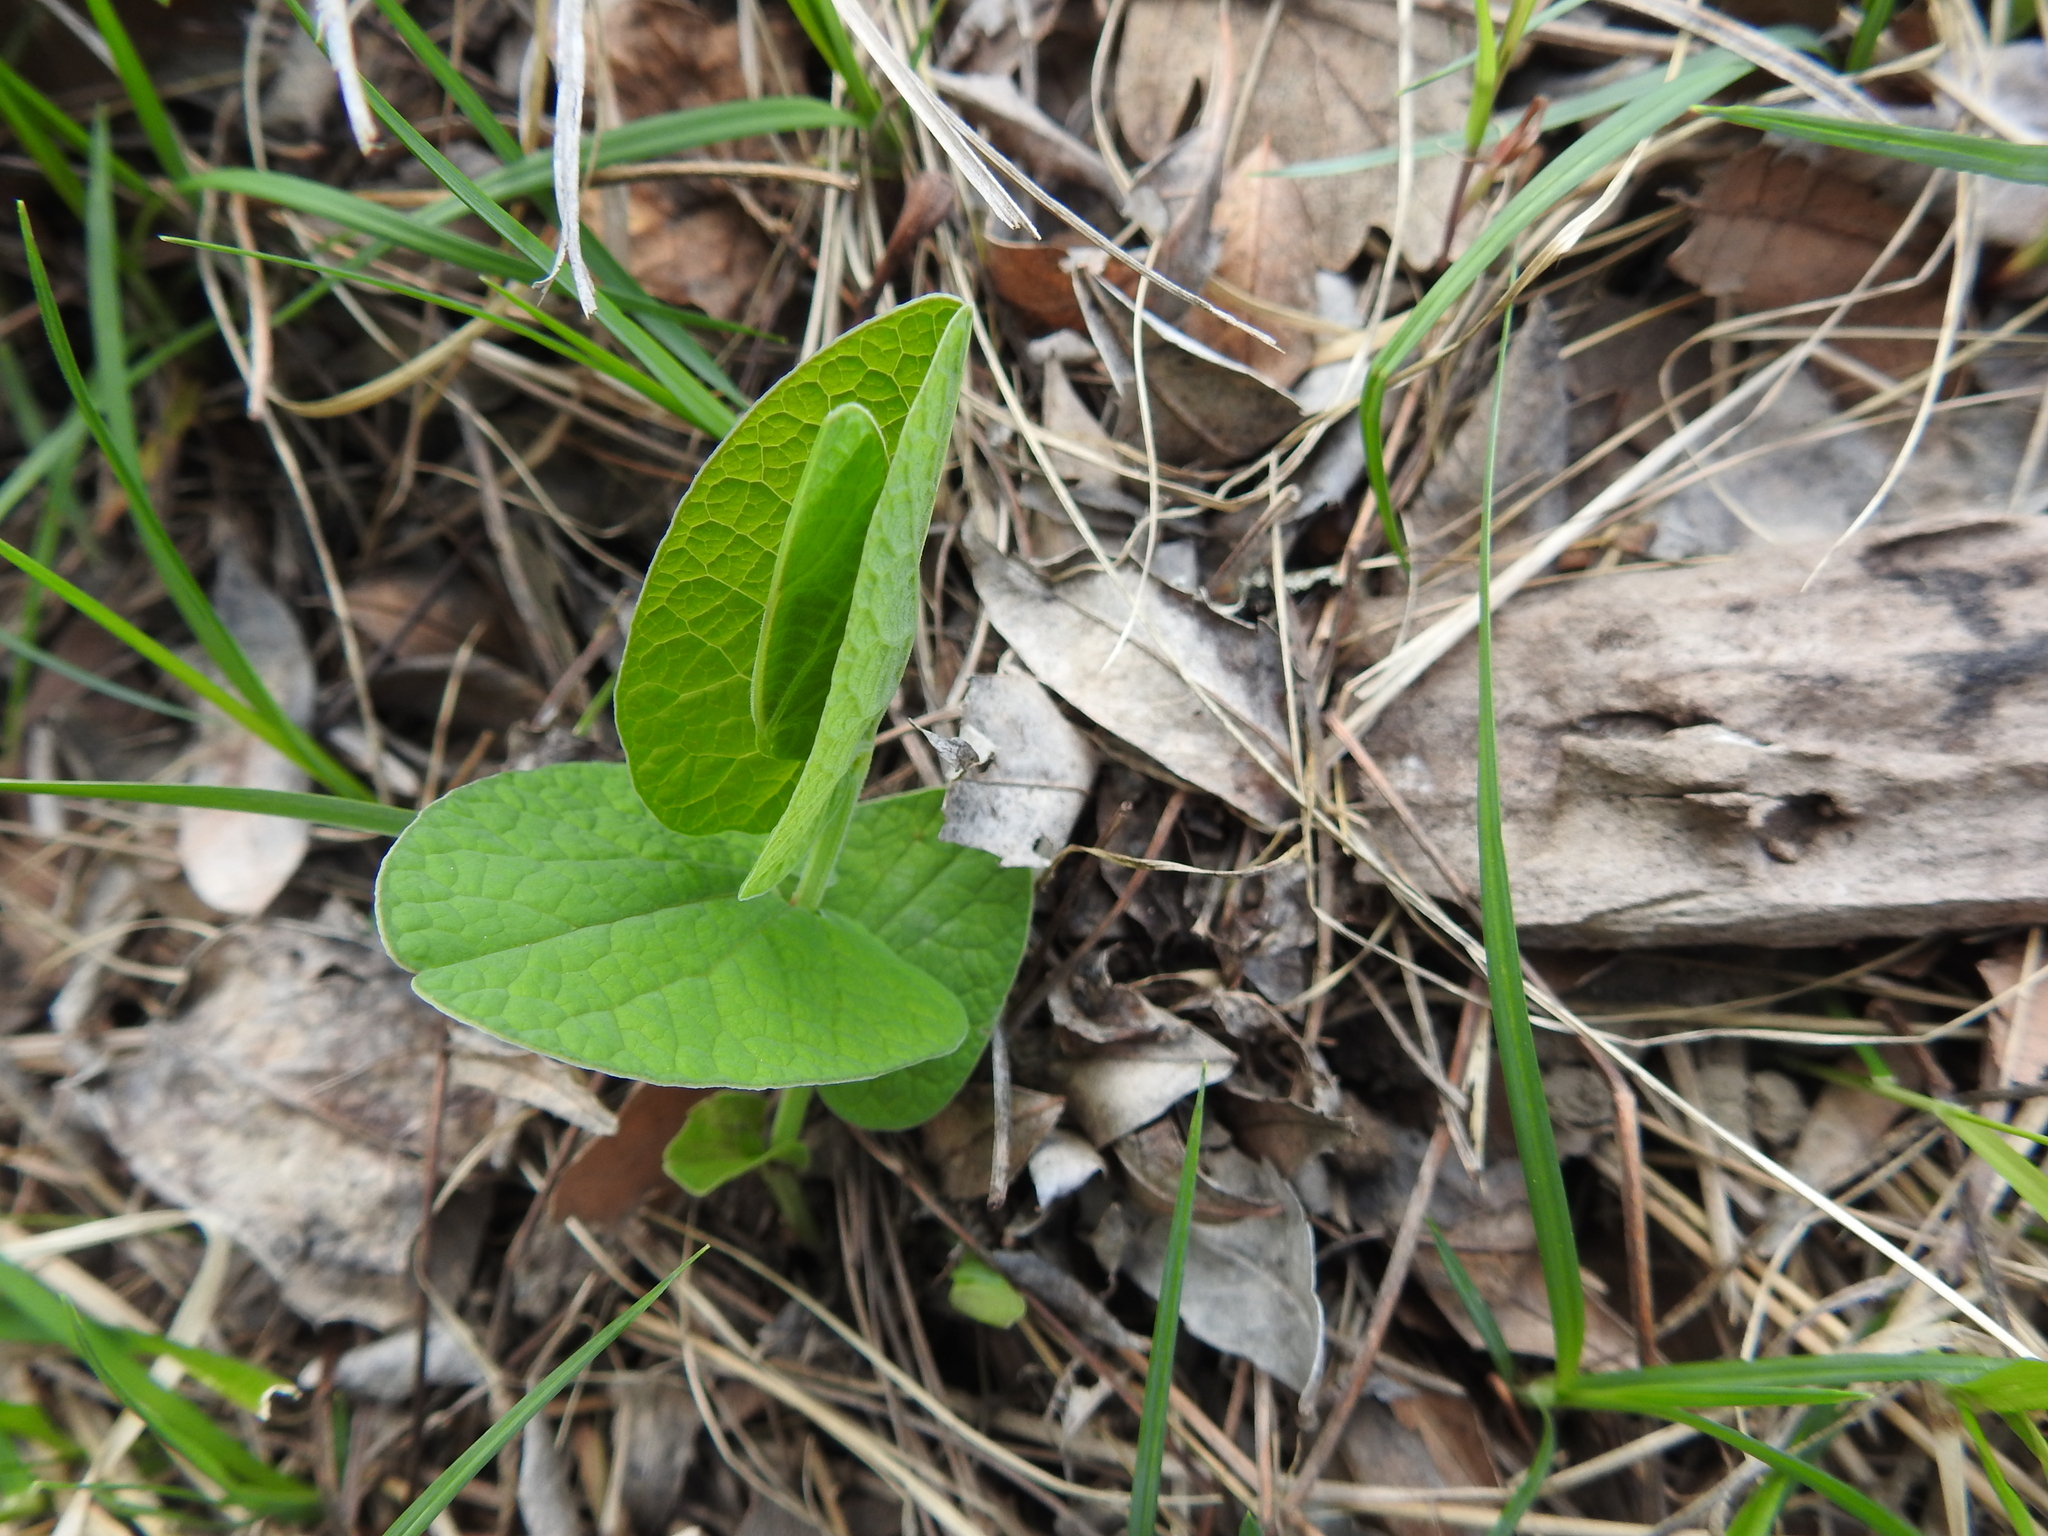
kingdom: Plantae
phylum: Tracheophyta
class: Magnoliopsida
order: Piperales
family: Aristolochiaceae
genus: Aristolochia
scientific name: Aristolochia rotunda
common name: Smearwort
